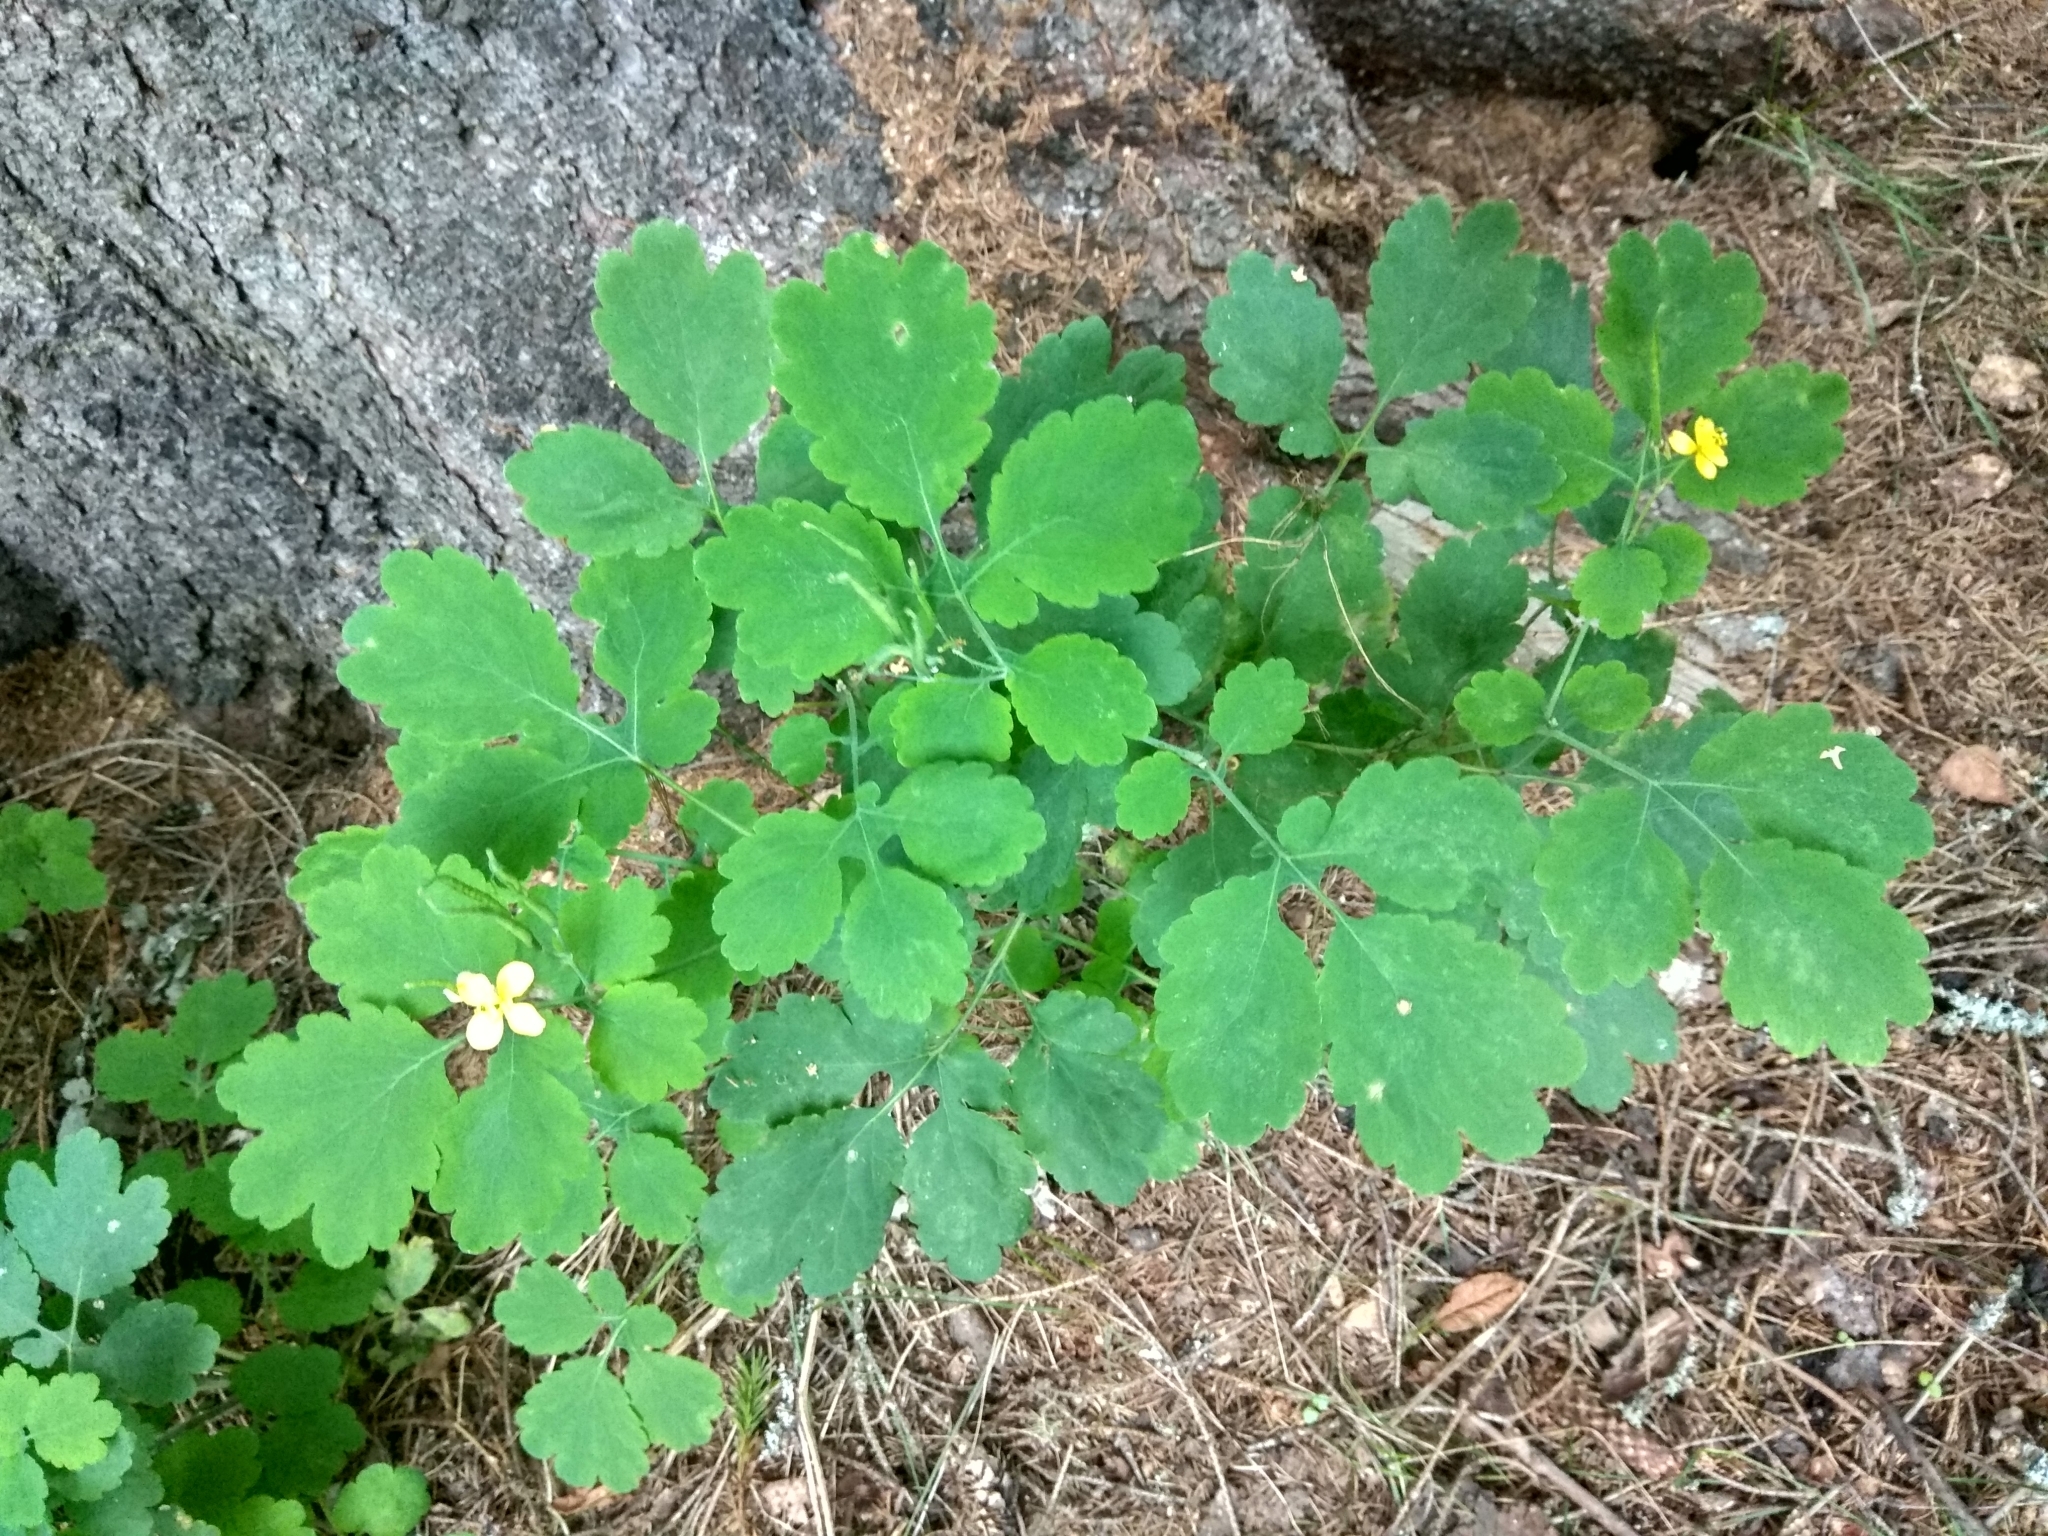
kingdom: Plantae
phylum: Tracheophyta
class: Magnoliopsida
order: Ranunculales
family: Papaveraceae
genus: Chelidonium
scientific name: Chelidonium majus
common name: Greater celandine
